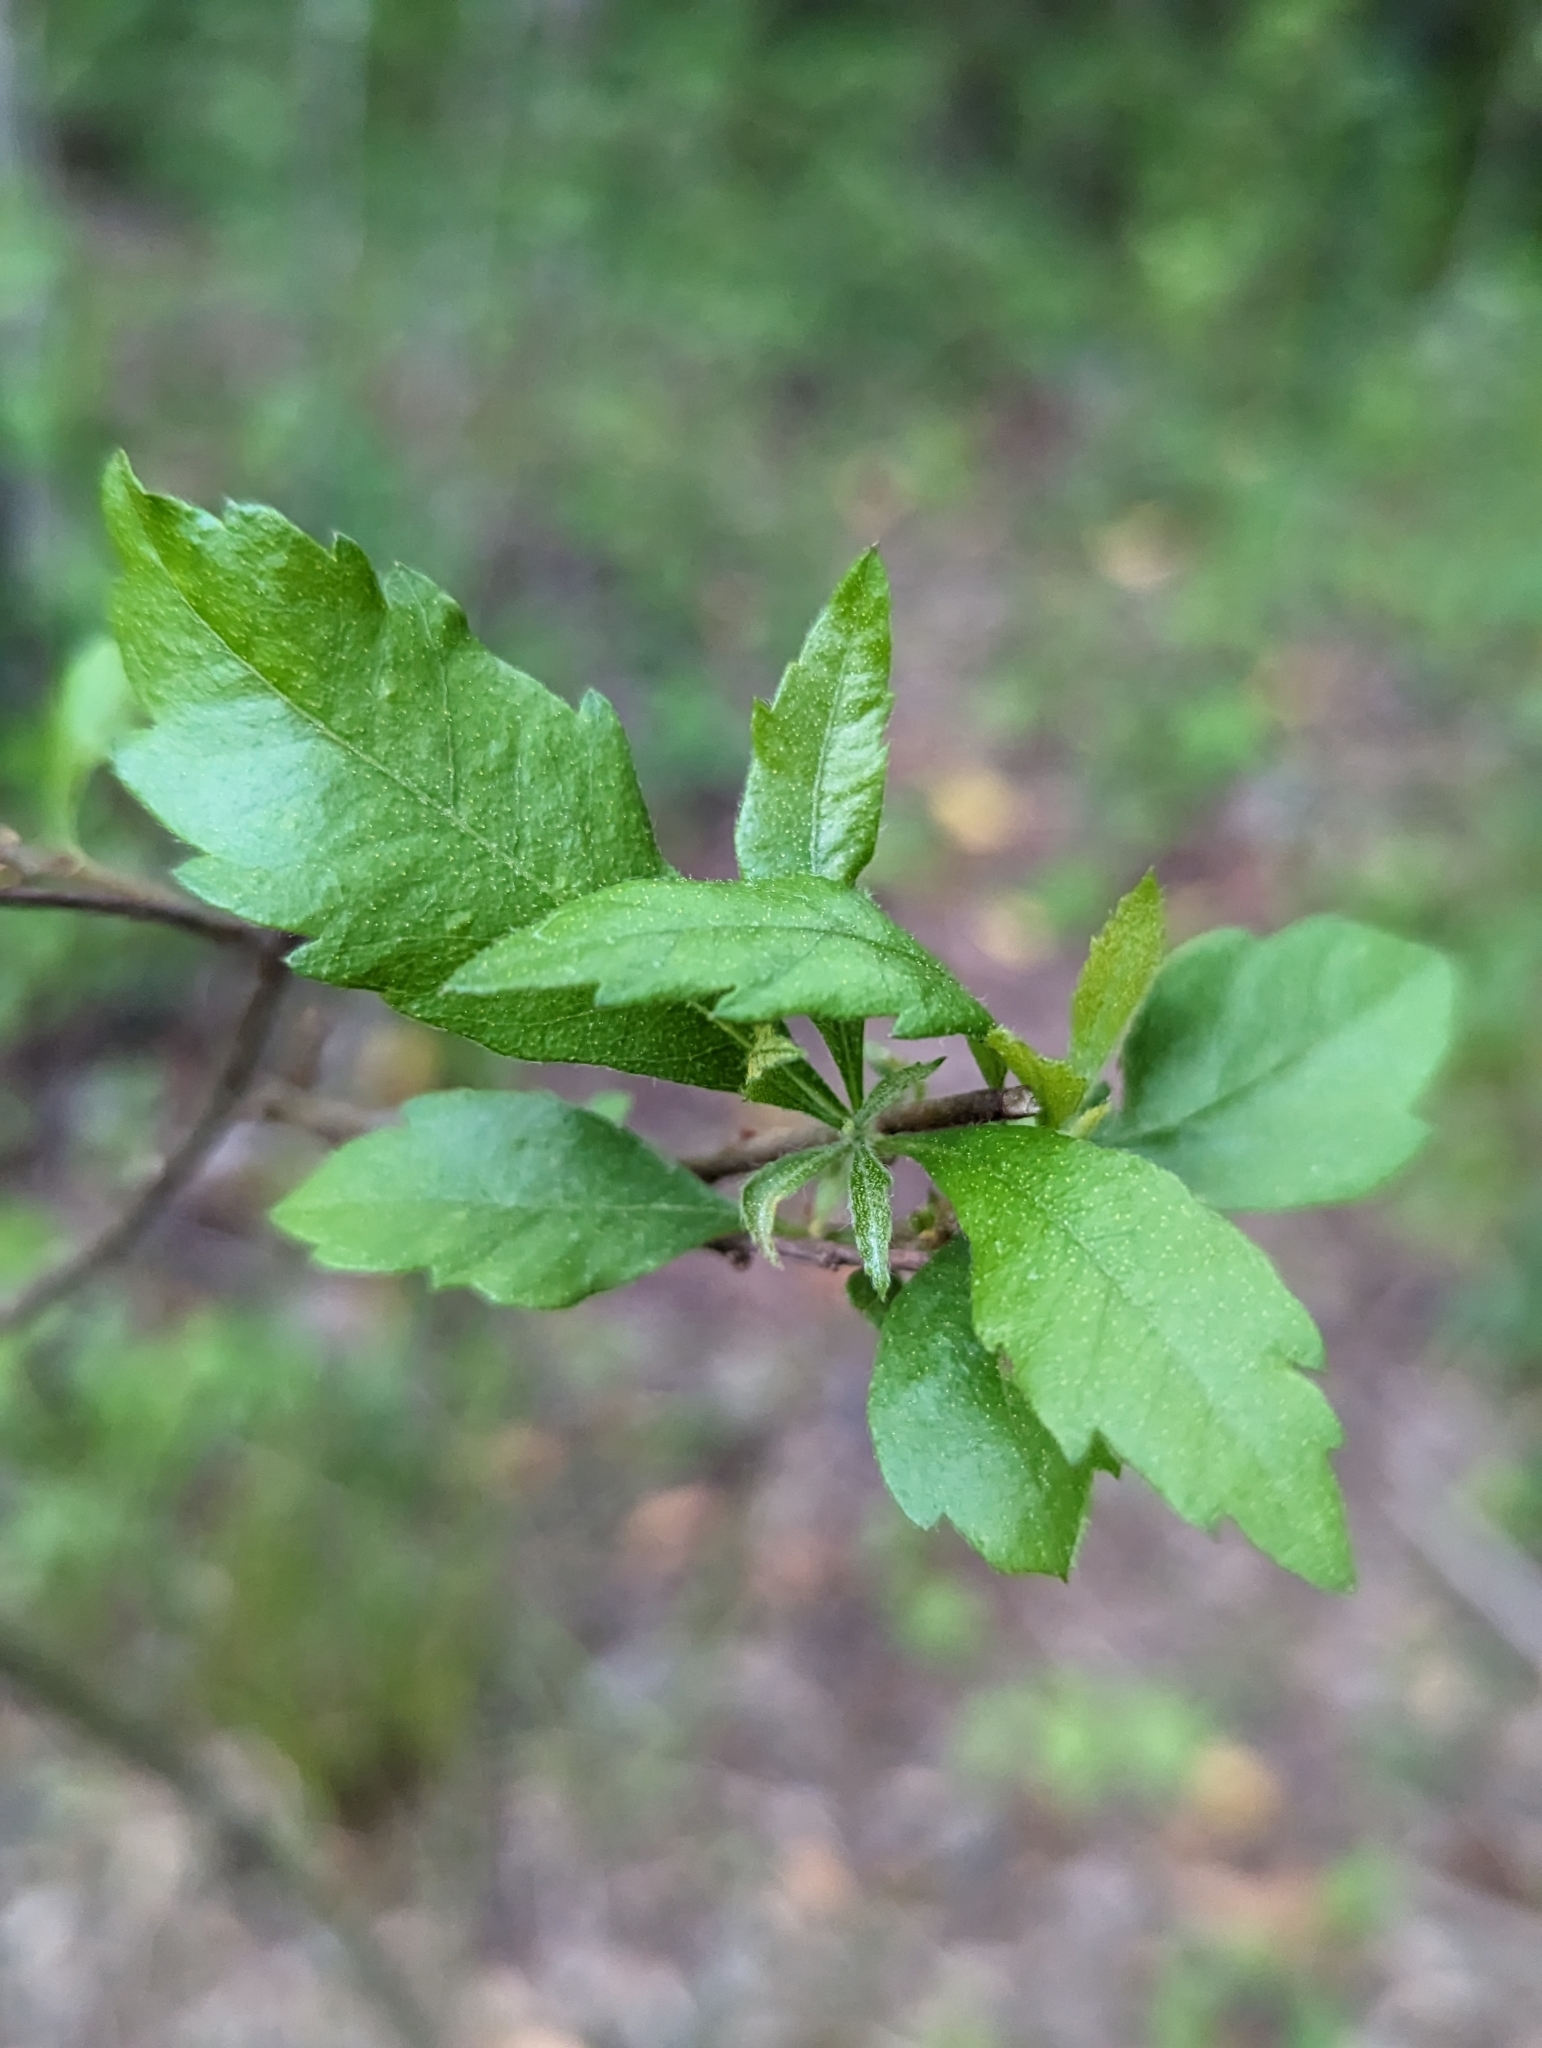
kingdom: Plantae
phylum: Tracheophyta
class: Magnoliopsida
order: Fagales
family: Myricaceae
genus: Morella
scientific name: Morella cerifera
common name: Wax myrtle
